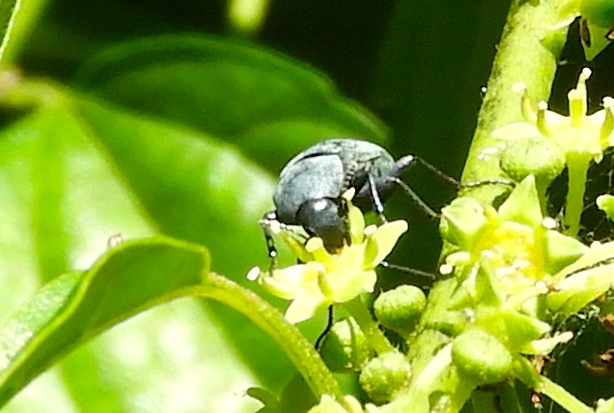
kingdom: Animalia
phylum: Arthropoda
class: Insecta
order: Coleoptera
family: Tenebrionidae
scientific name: Tenebrionidae
